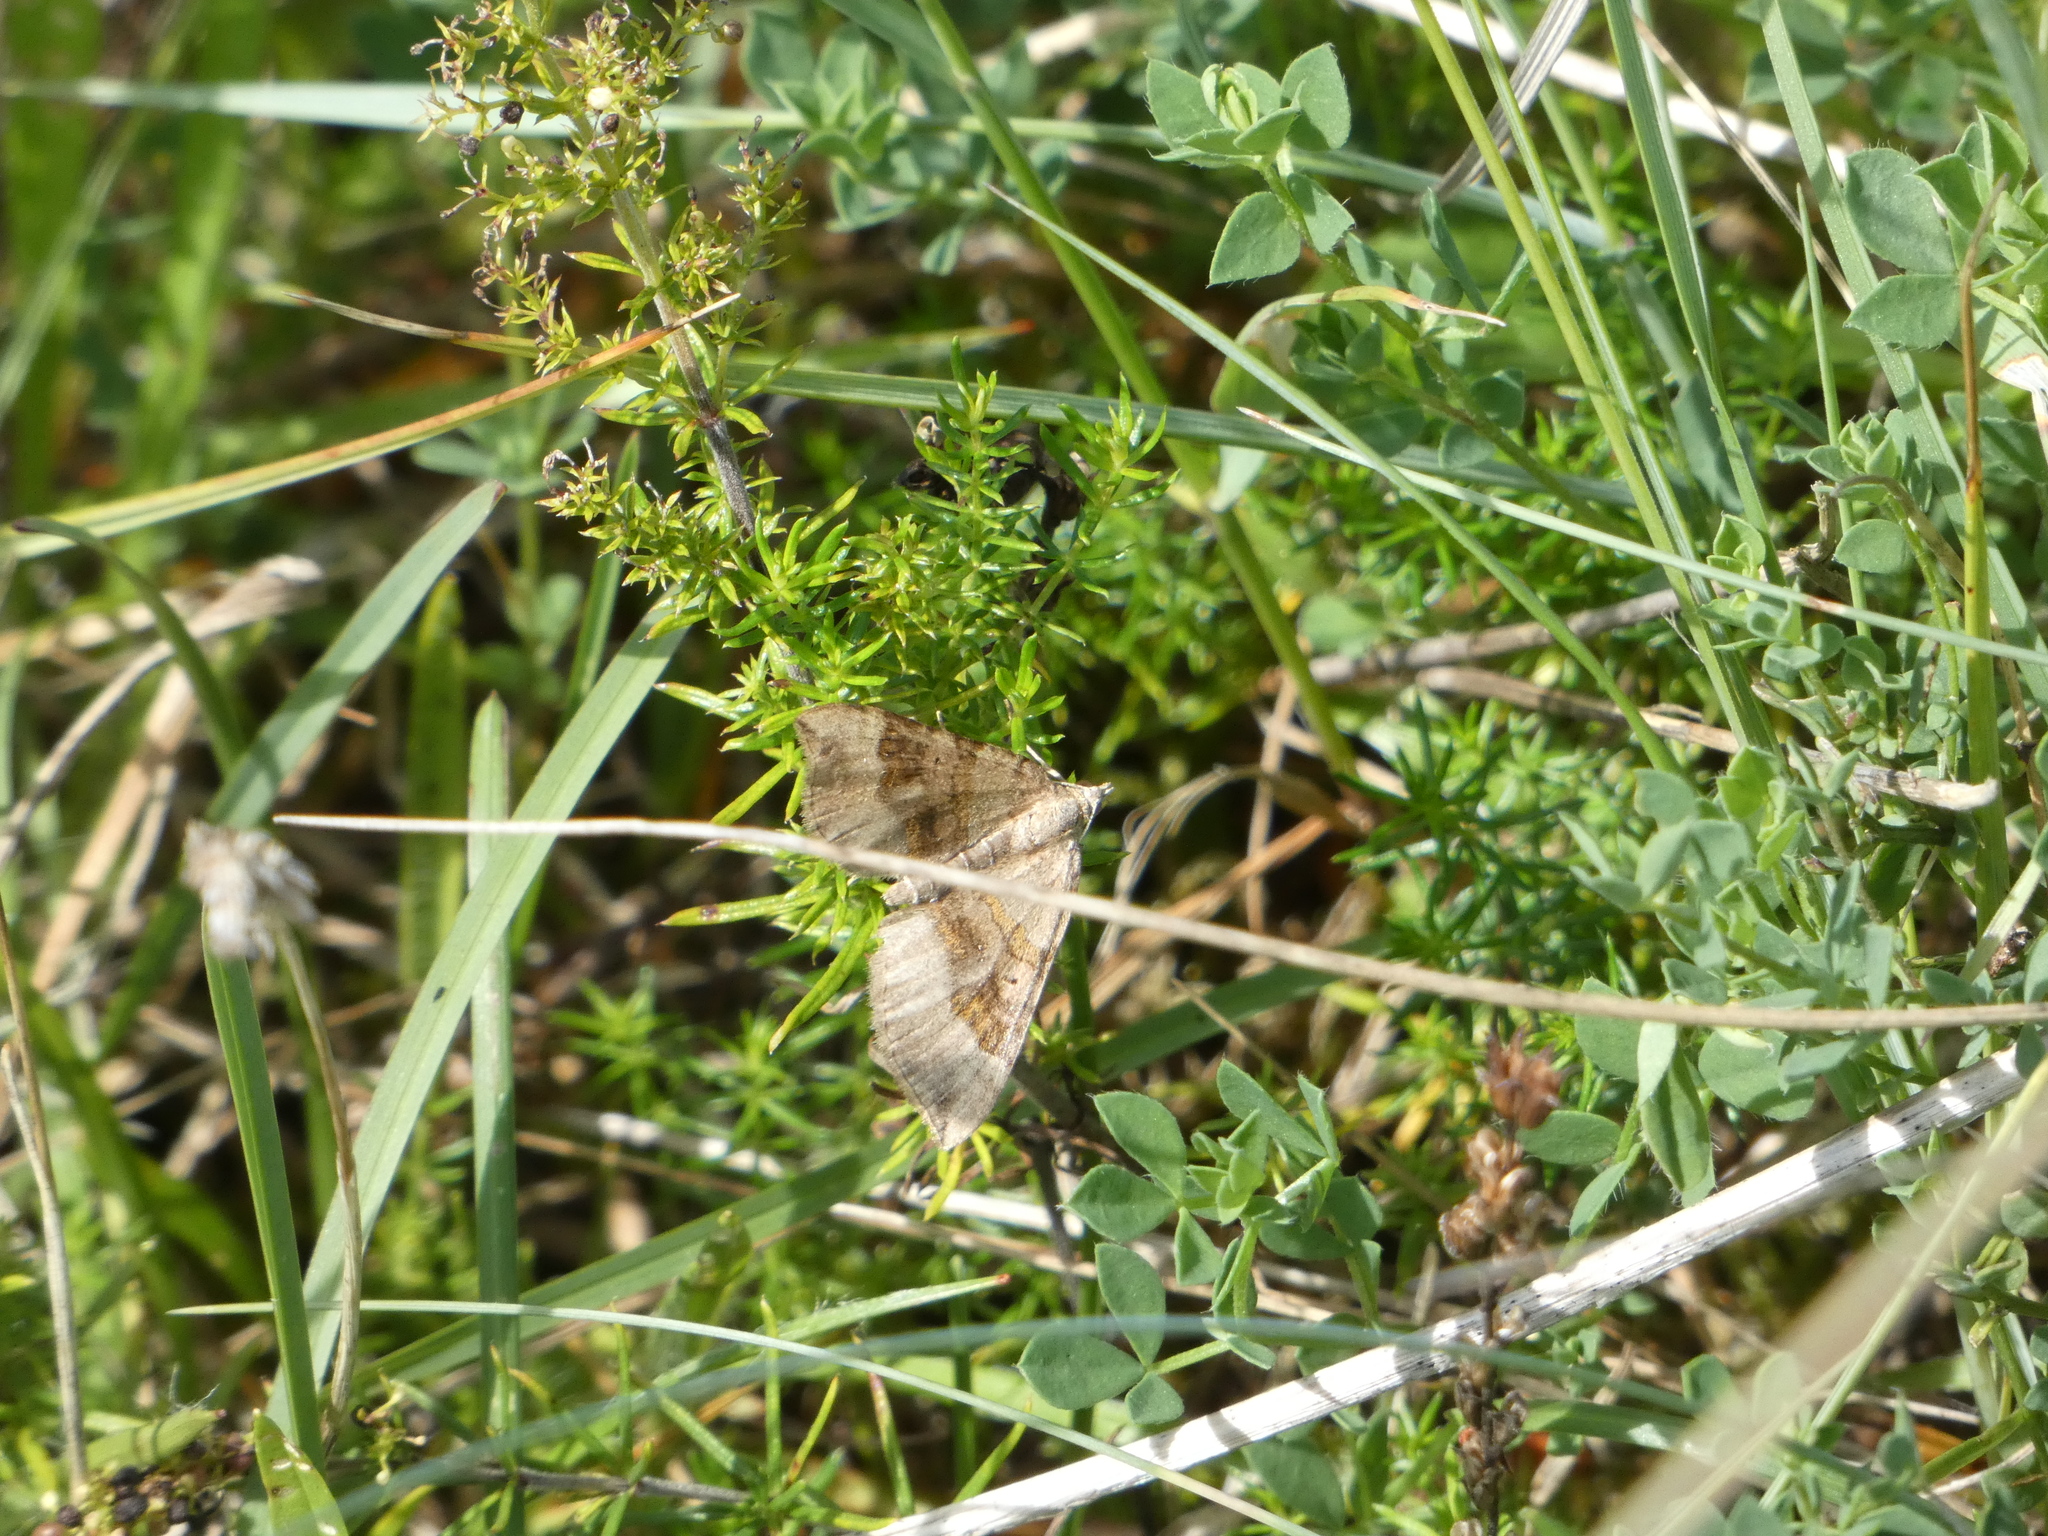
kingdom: Animalia
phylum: Arthropoda
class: Insecta
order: Lepidoptera
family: Geometridae
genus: Scotopteryx
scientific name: Scotopteryx chenopodiata
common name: Shaded broad-bar
